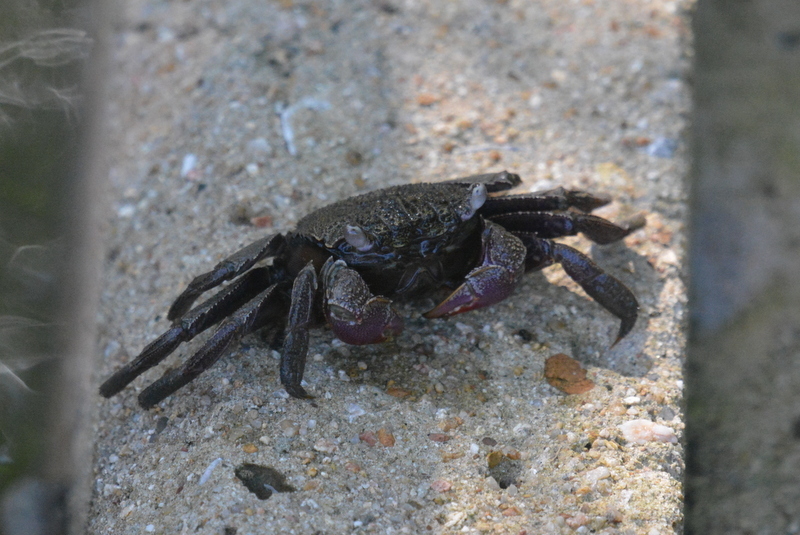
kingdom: Animalia
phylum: Arthropoda
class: Malacostraca
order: Decapoda
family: Sesarmidae
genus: Episesarma
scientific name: Episesarma mederi
